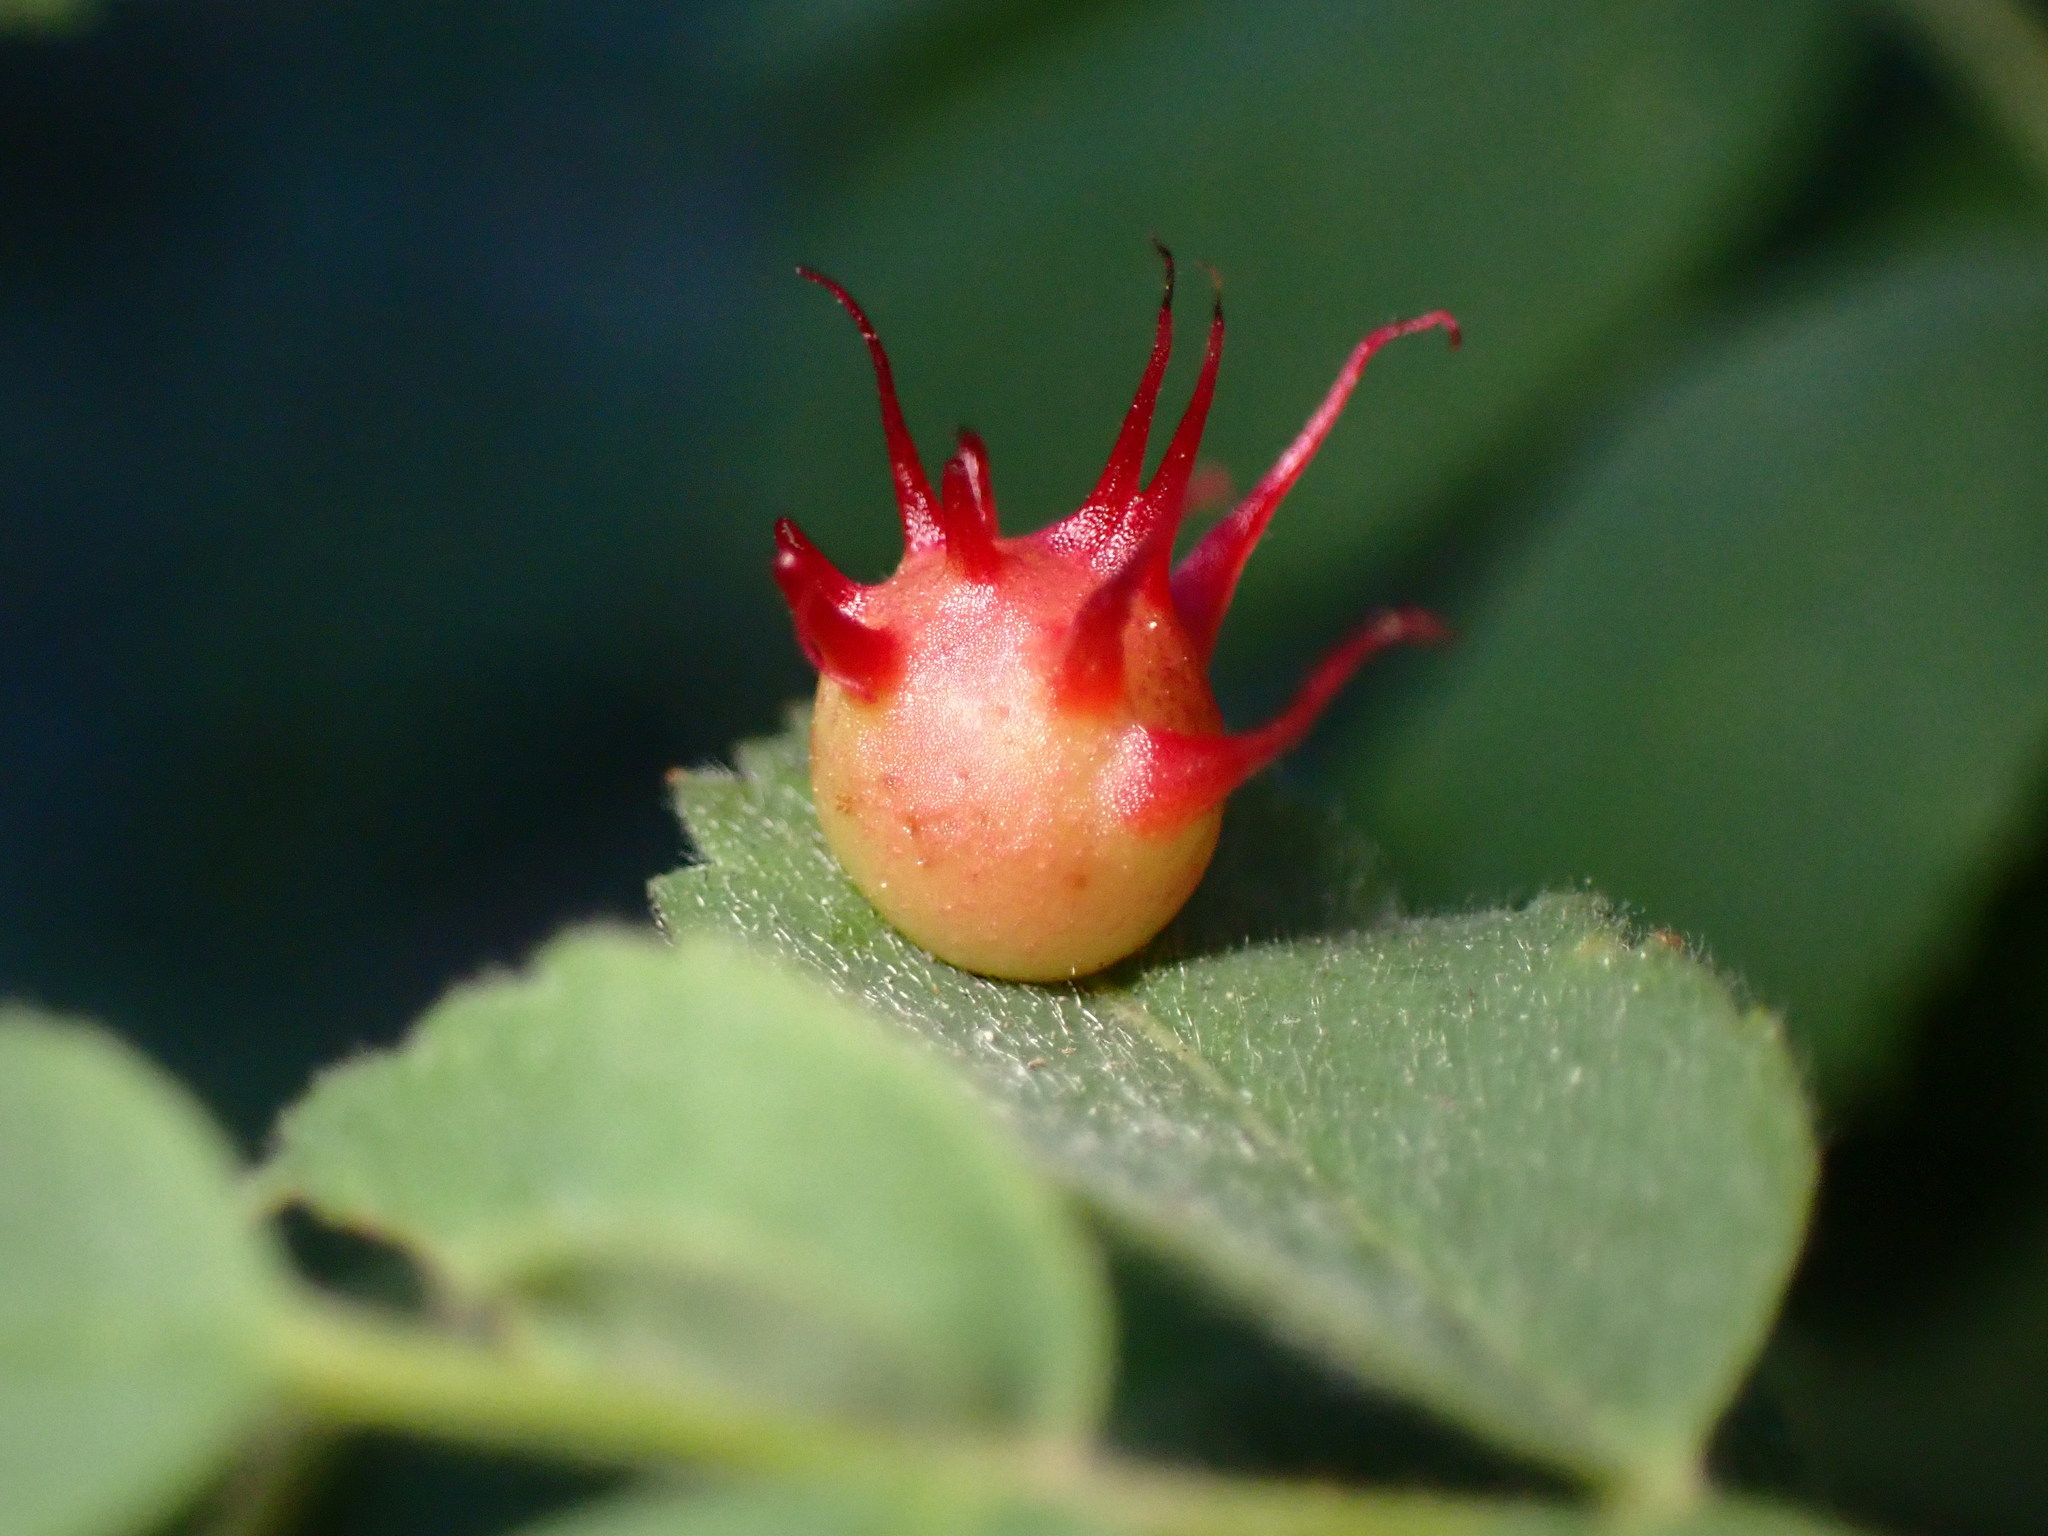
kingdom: Animalia
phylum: Arthropoda
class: Insecta
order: Hymenoptera
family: Cynipidae
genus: Diplolepis
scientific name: Diplolepis polita
